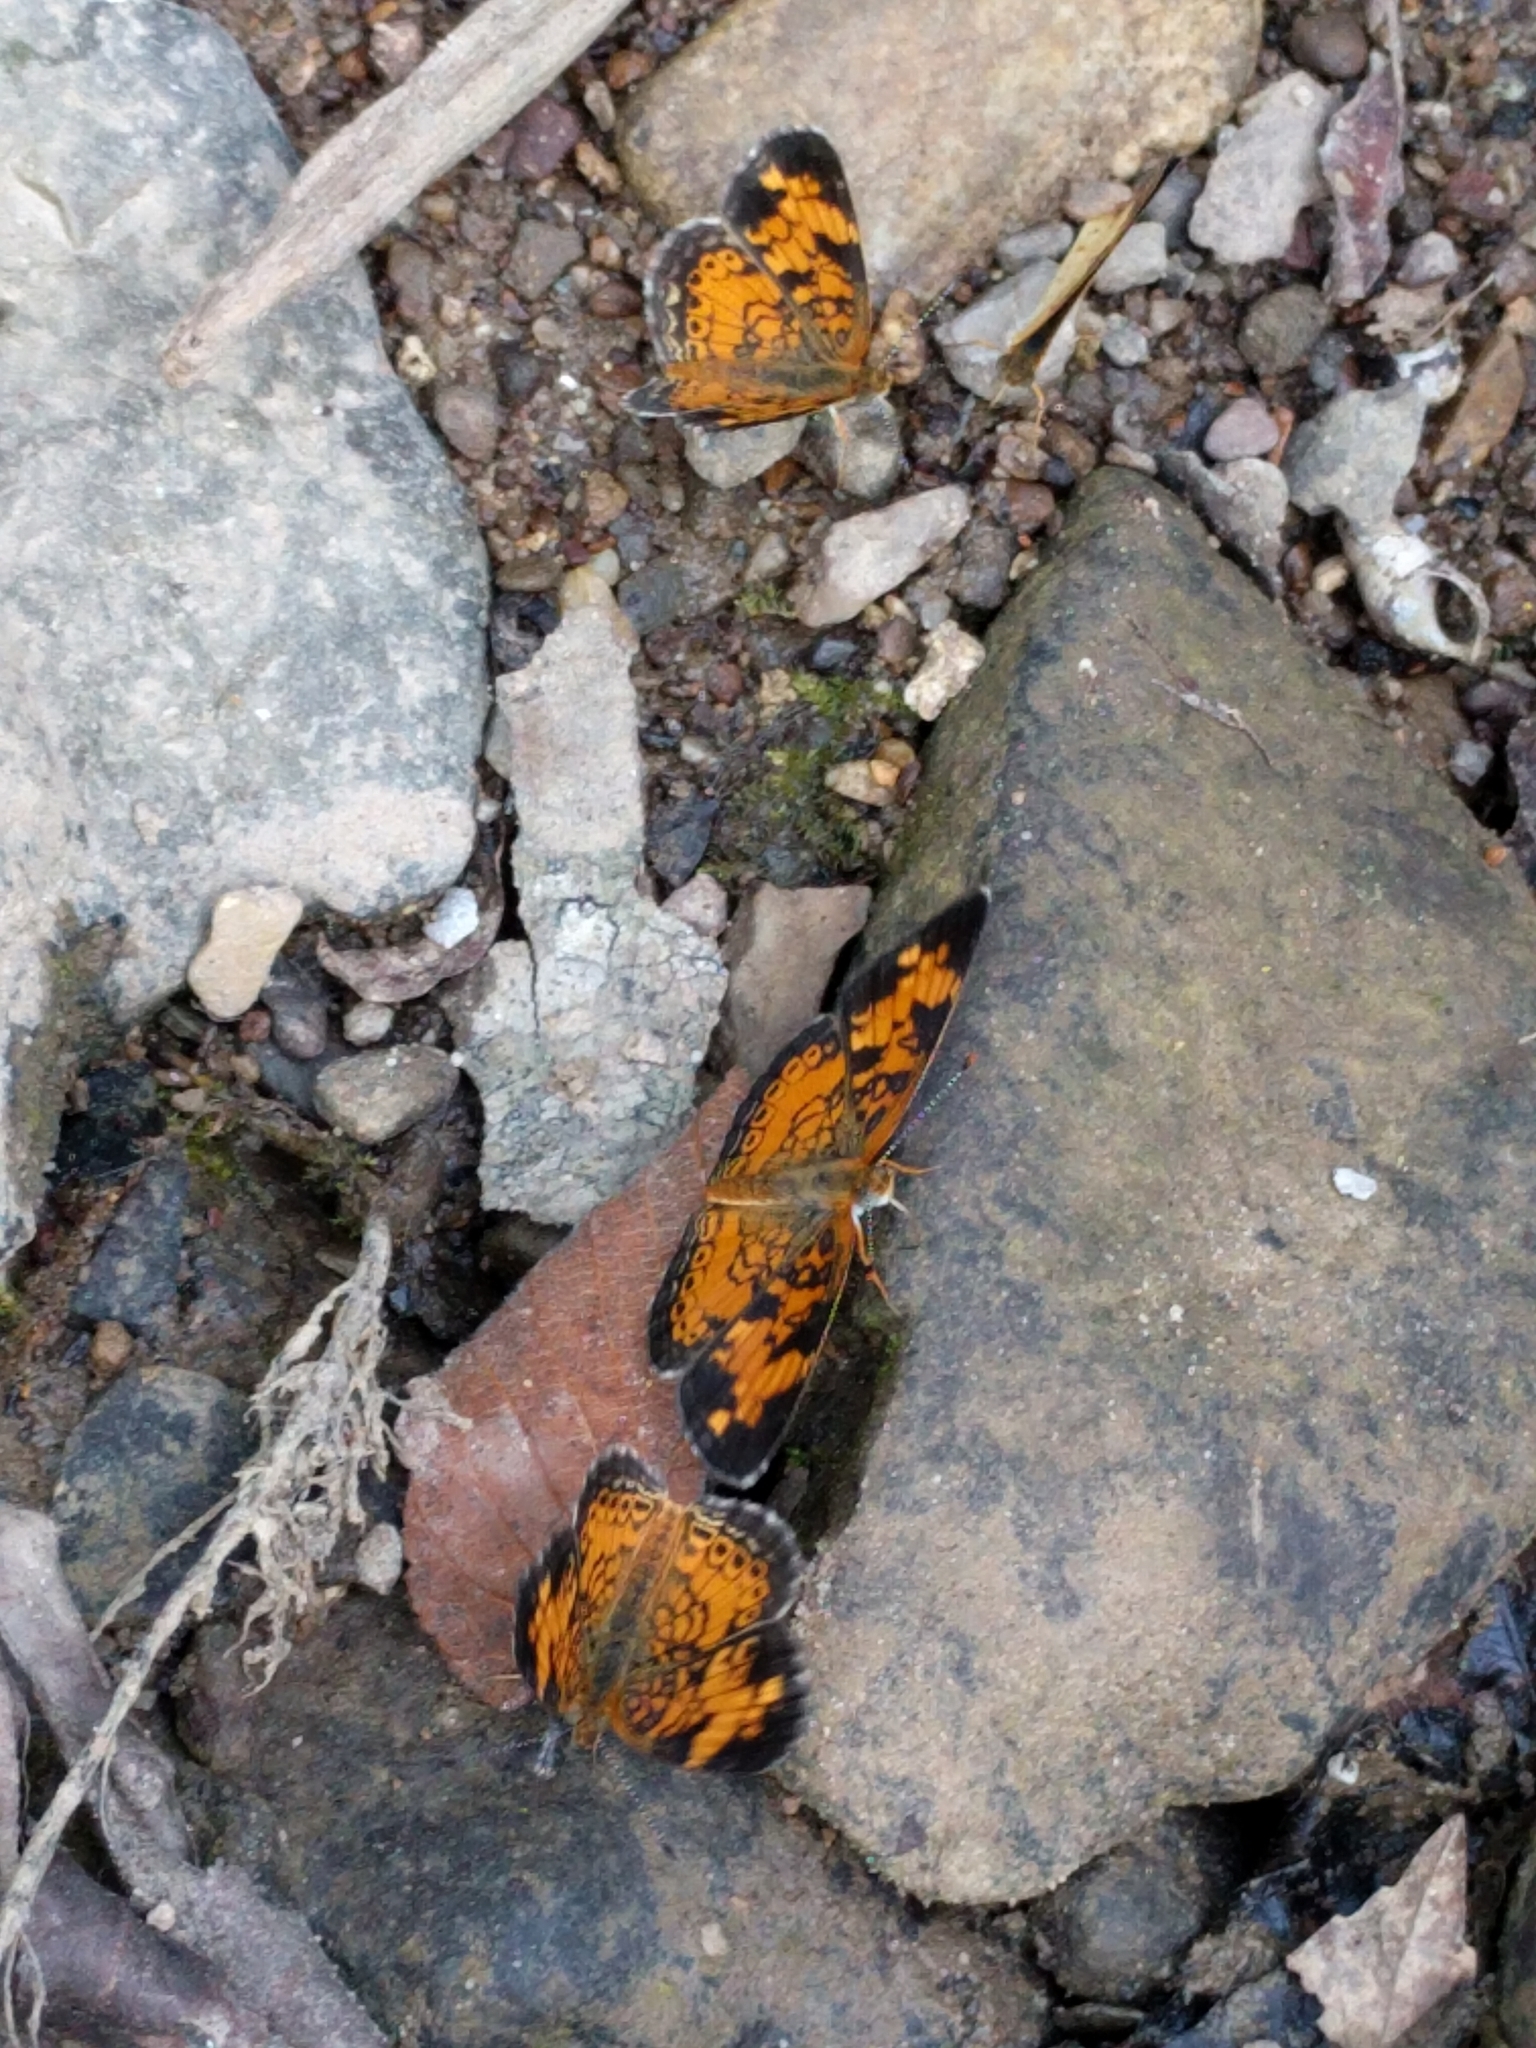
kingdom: Animalia
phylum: Arthropoda
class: Insecta
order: Lepidoptera
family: Nymphalidae
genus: Phyciodes
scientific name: Phyciodes tharos
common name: Pearl crescent
